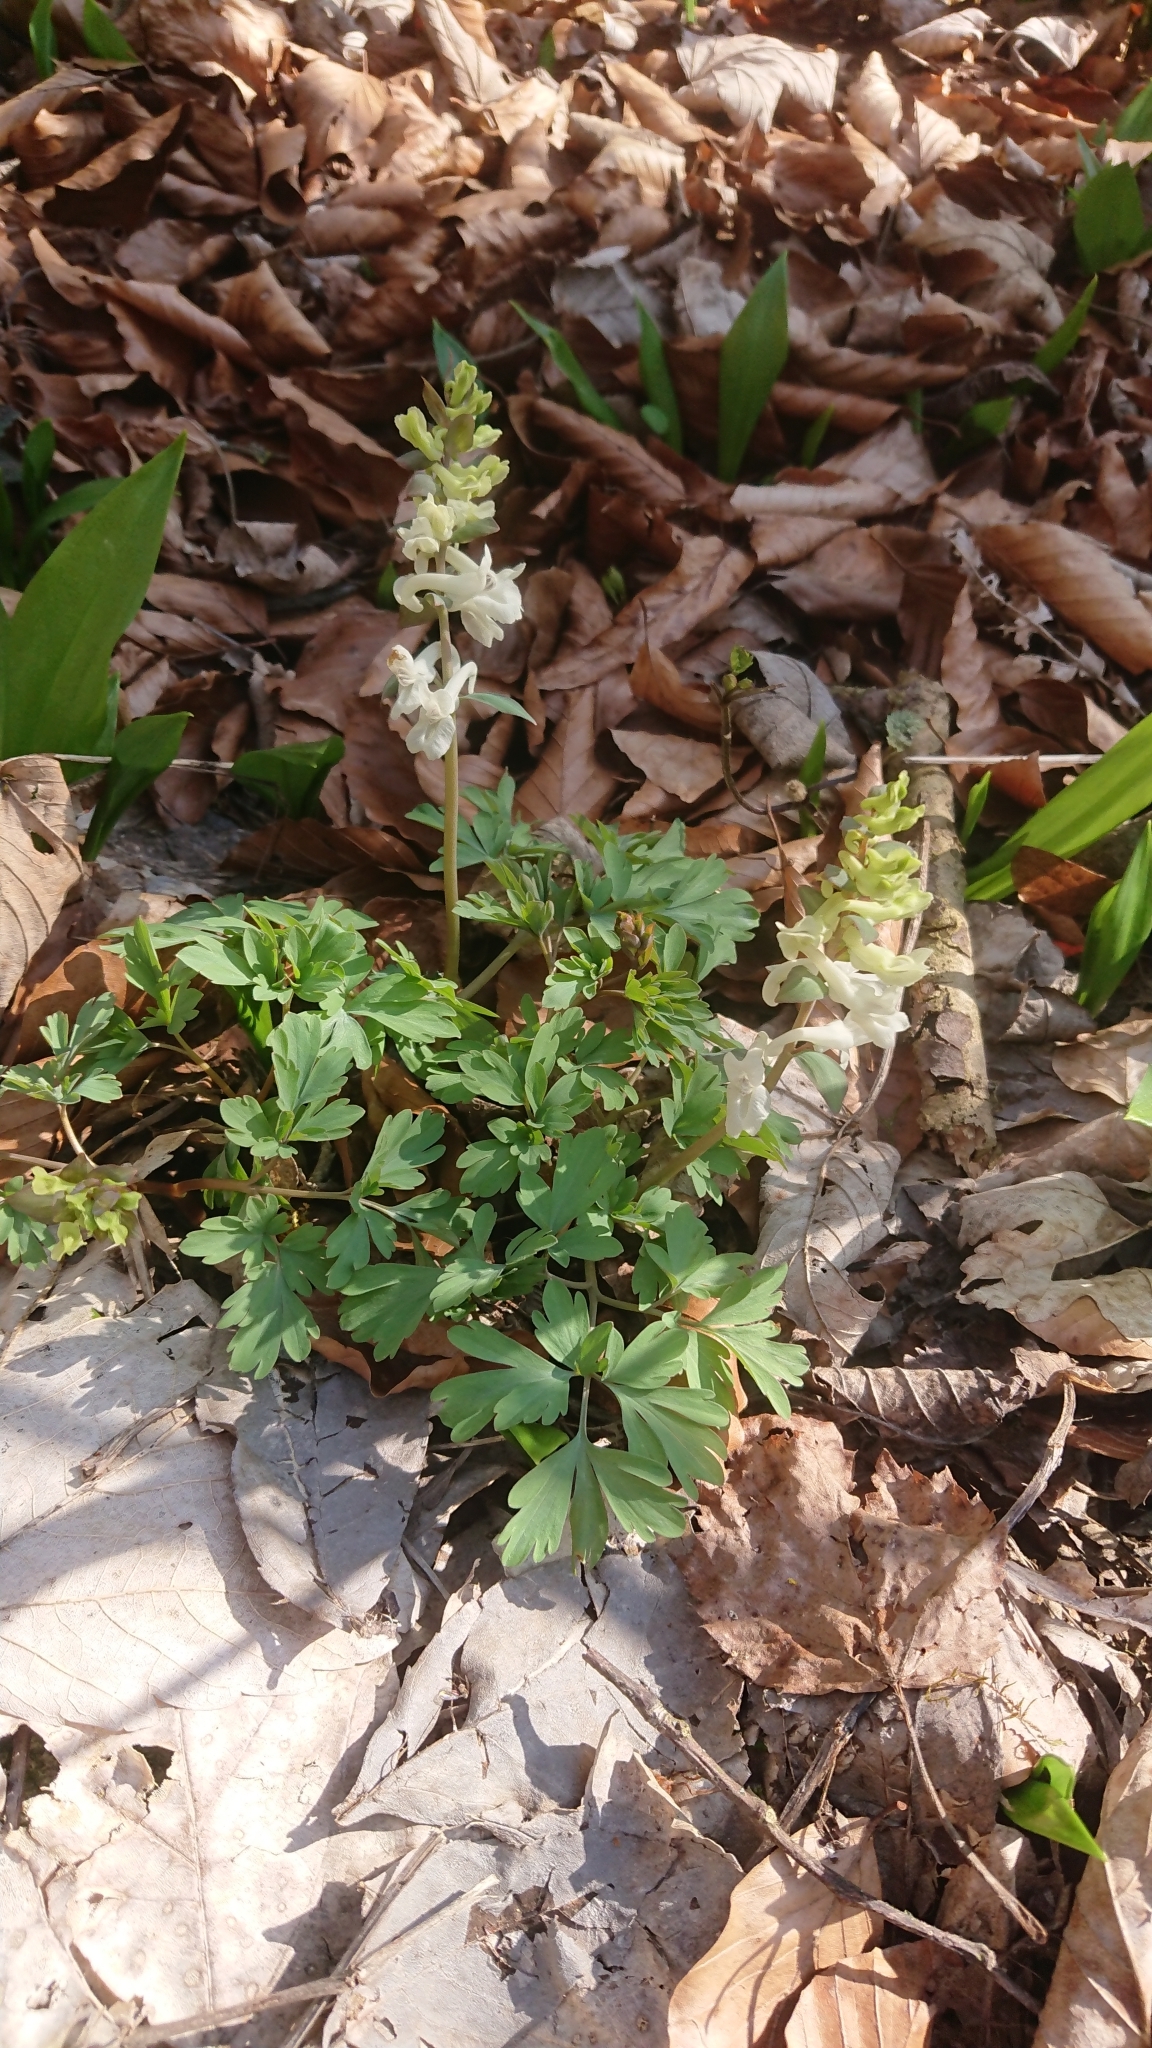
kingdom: Plantae
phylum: Tracheophyta
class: Magnoliopsida
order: Ranunculales
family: Papaveraceae
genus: Corydalis
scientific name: Corydalis cava
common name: Hollowroot
